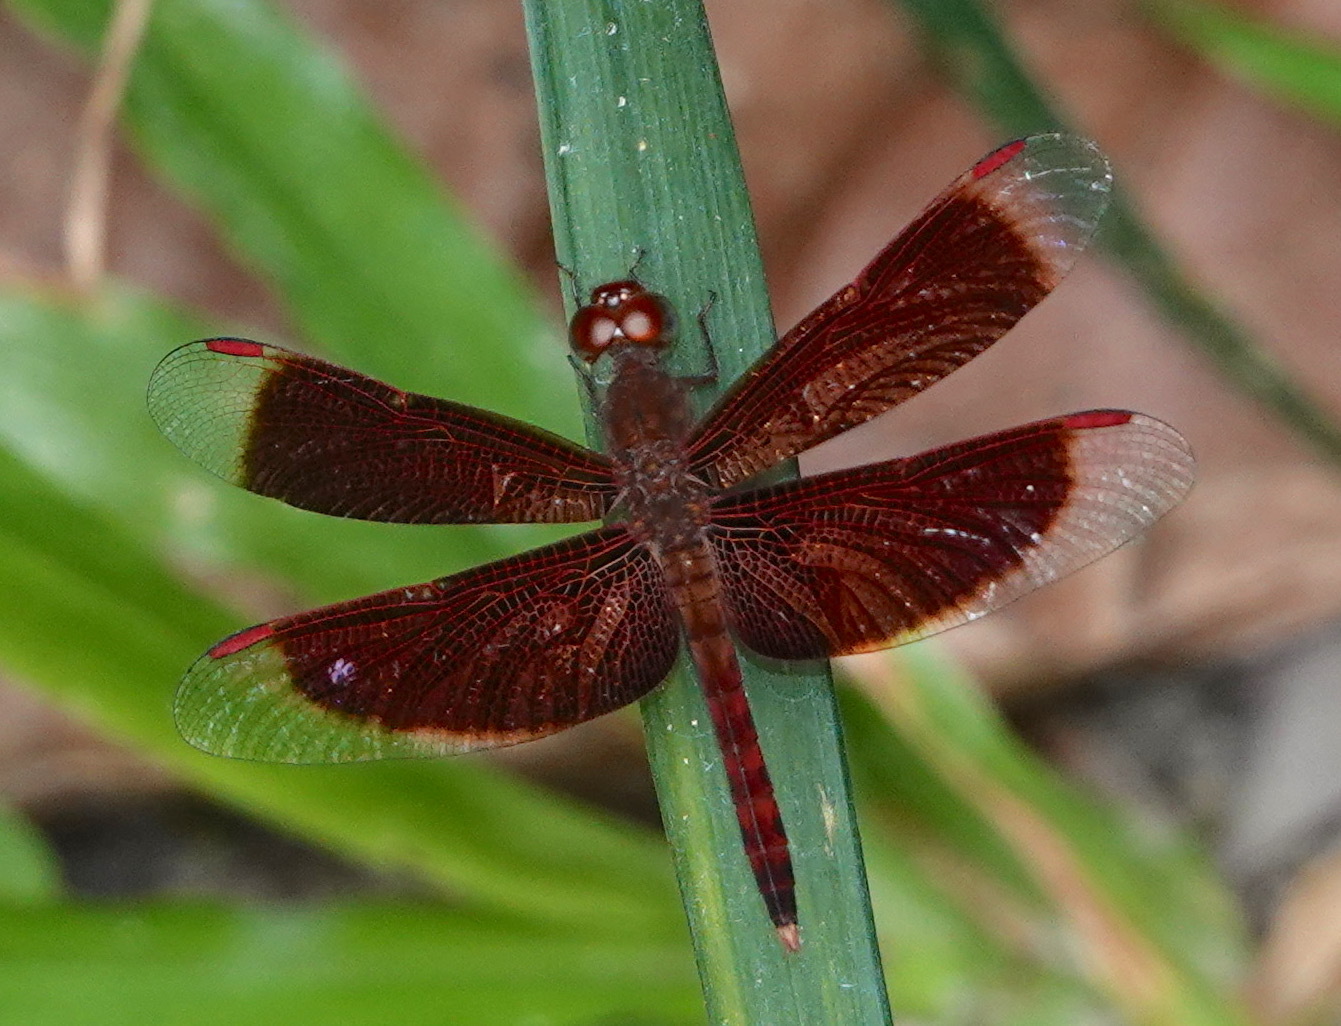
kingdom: Animalia
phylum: Arthropoda
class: Insecta
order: Odonata
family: Libellulidae
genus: Neurothemis
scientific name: Neurothemis fluctuans
